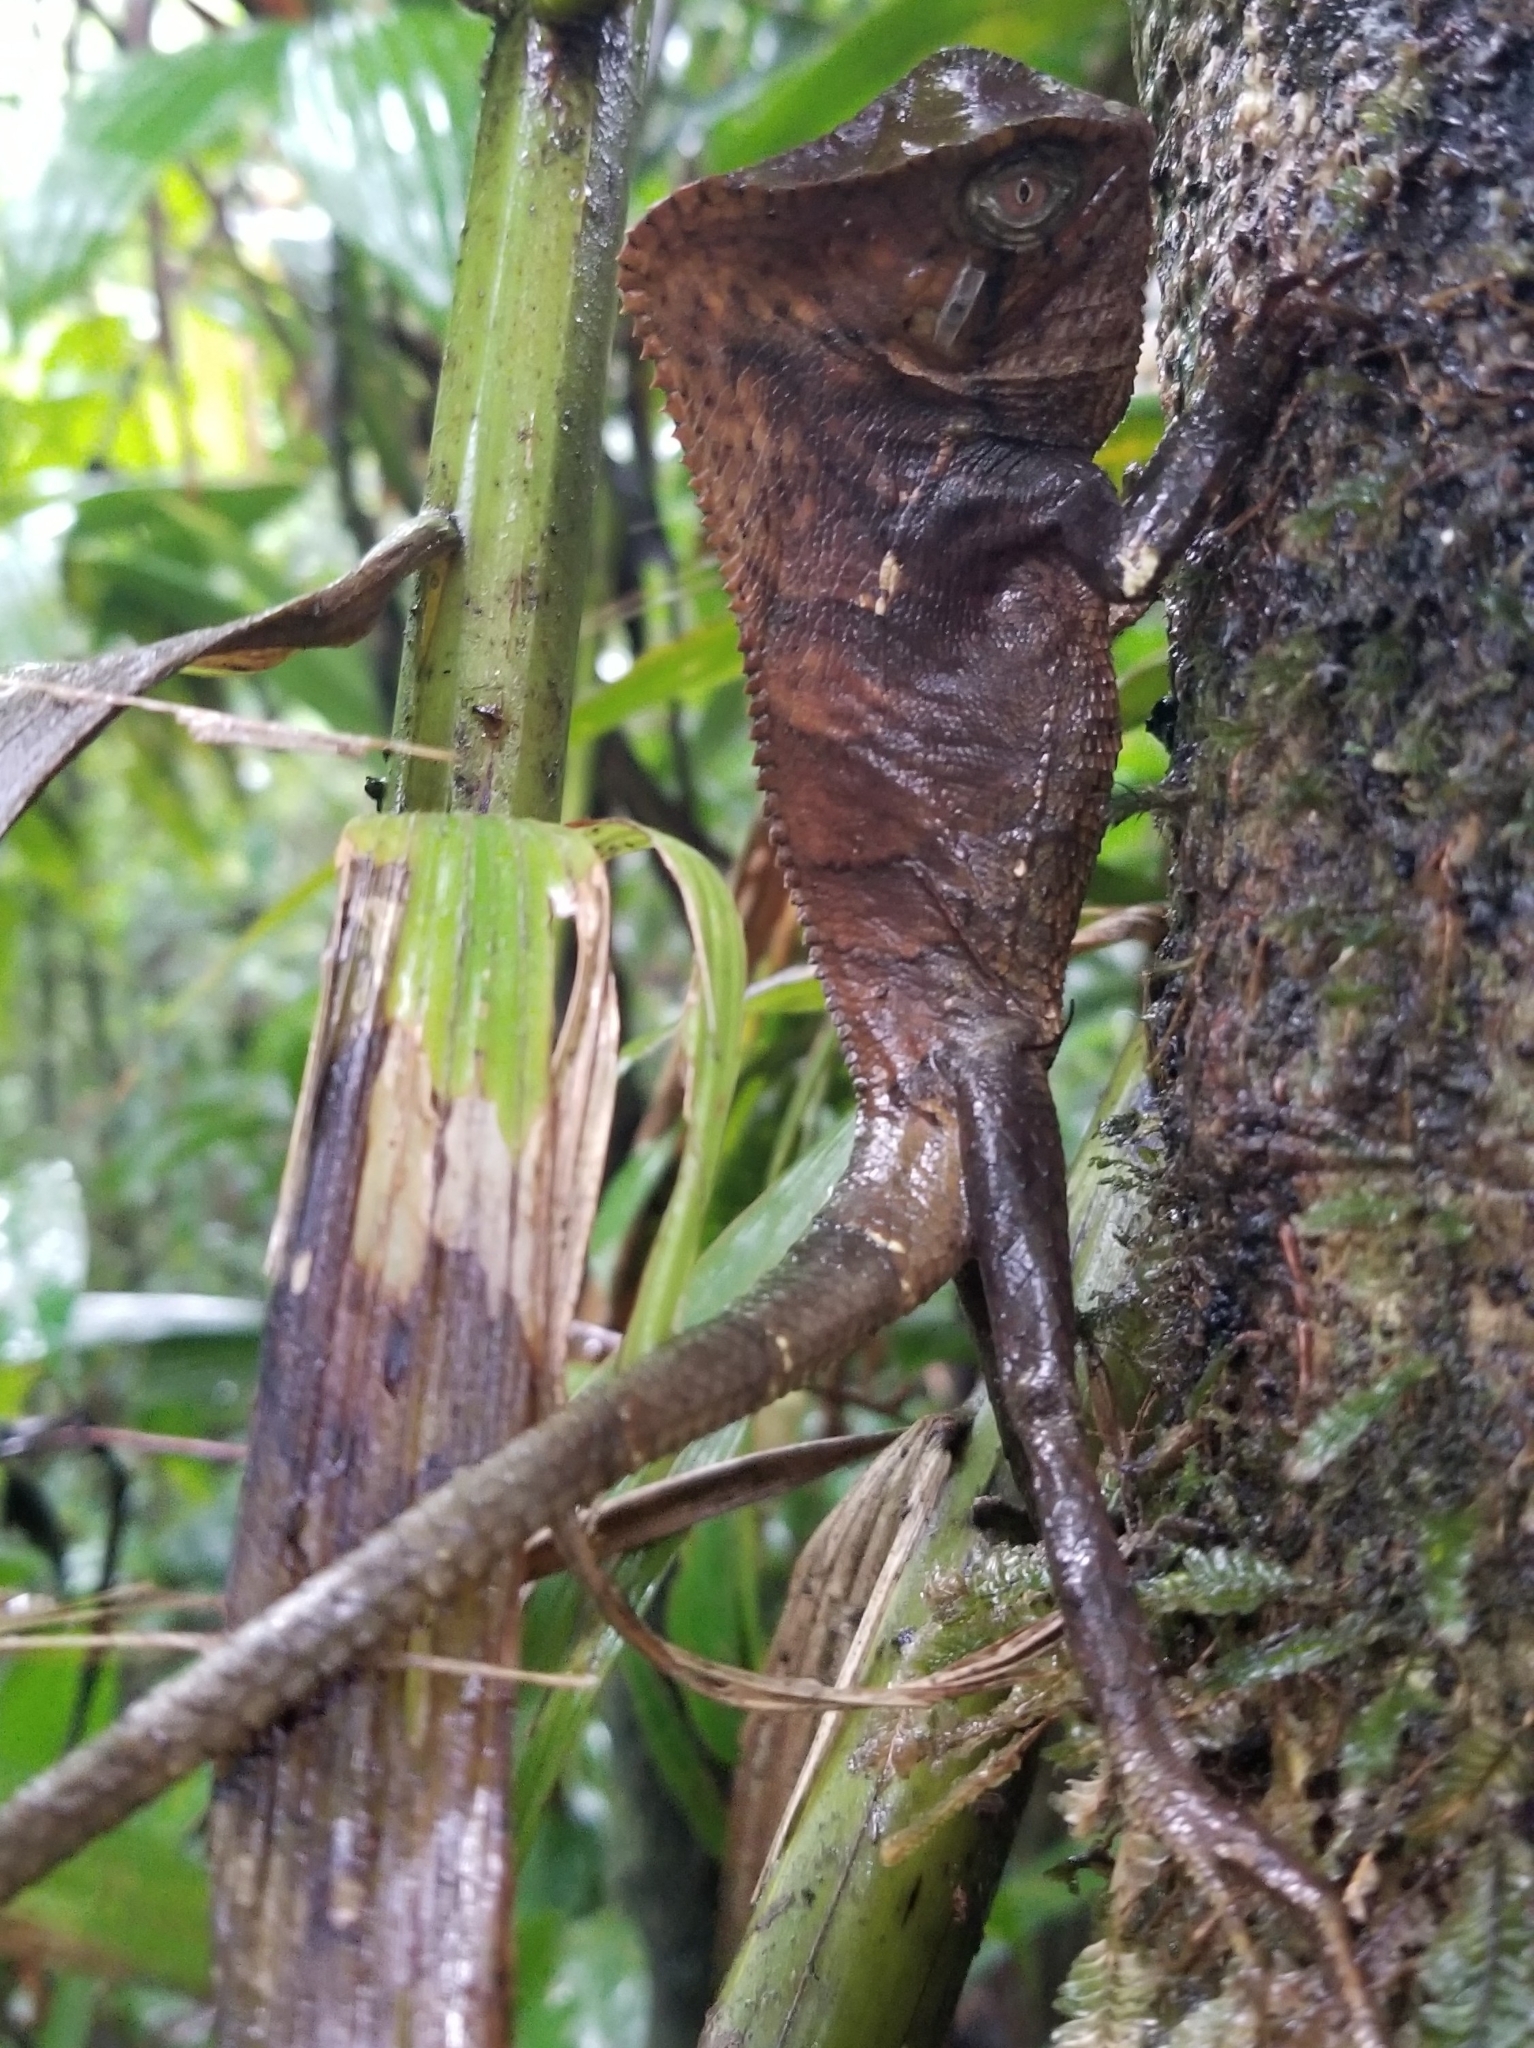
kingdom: Animalia
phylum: Chordata
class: Squamata
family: Corytophanidae
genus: Corytophanes
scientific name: Corytophanes cristatus
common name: Smooth helmeted iguana
